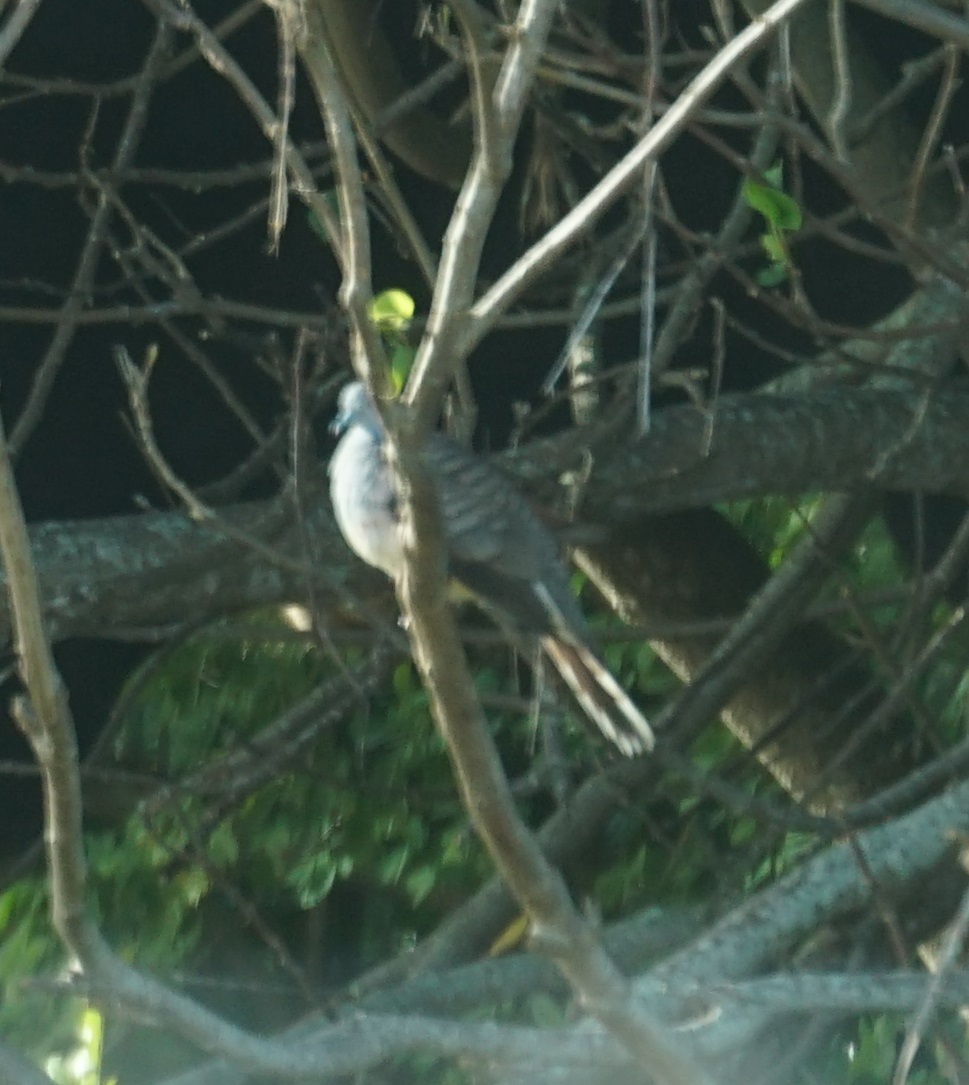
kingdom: Animalia
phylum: Chordata
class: Aves
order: Columbiformes
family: Columbidae
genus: Geopelia
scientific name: Geopelia humeralis
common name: Bar-shouldered dove
